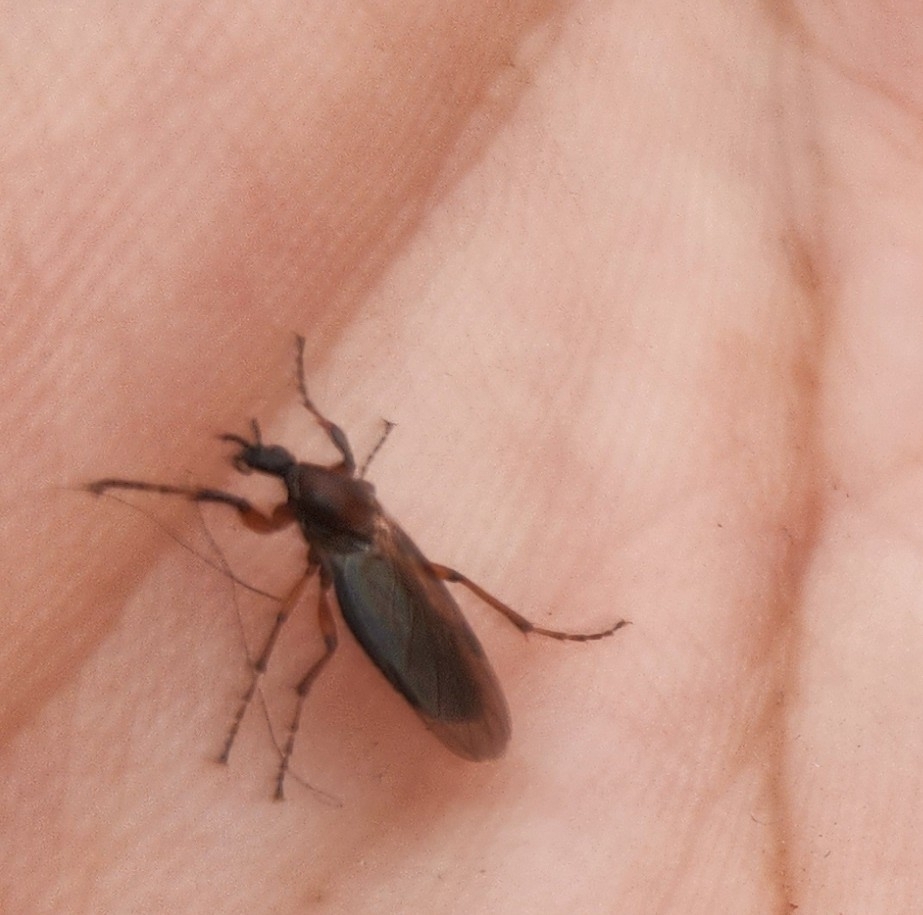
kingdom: Animalia
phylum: Arthropoda
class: Insecta
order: Diptera
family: Bibionidae
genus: Bibio
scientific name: Bibio articulatus
